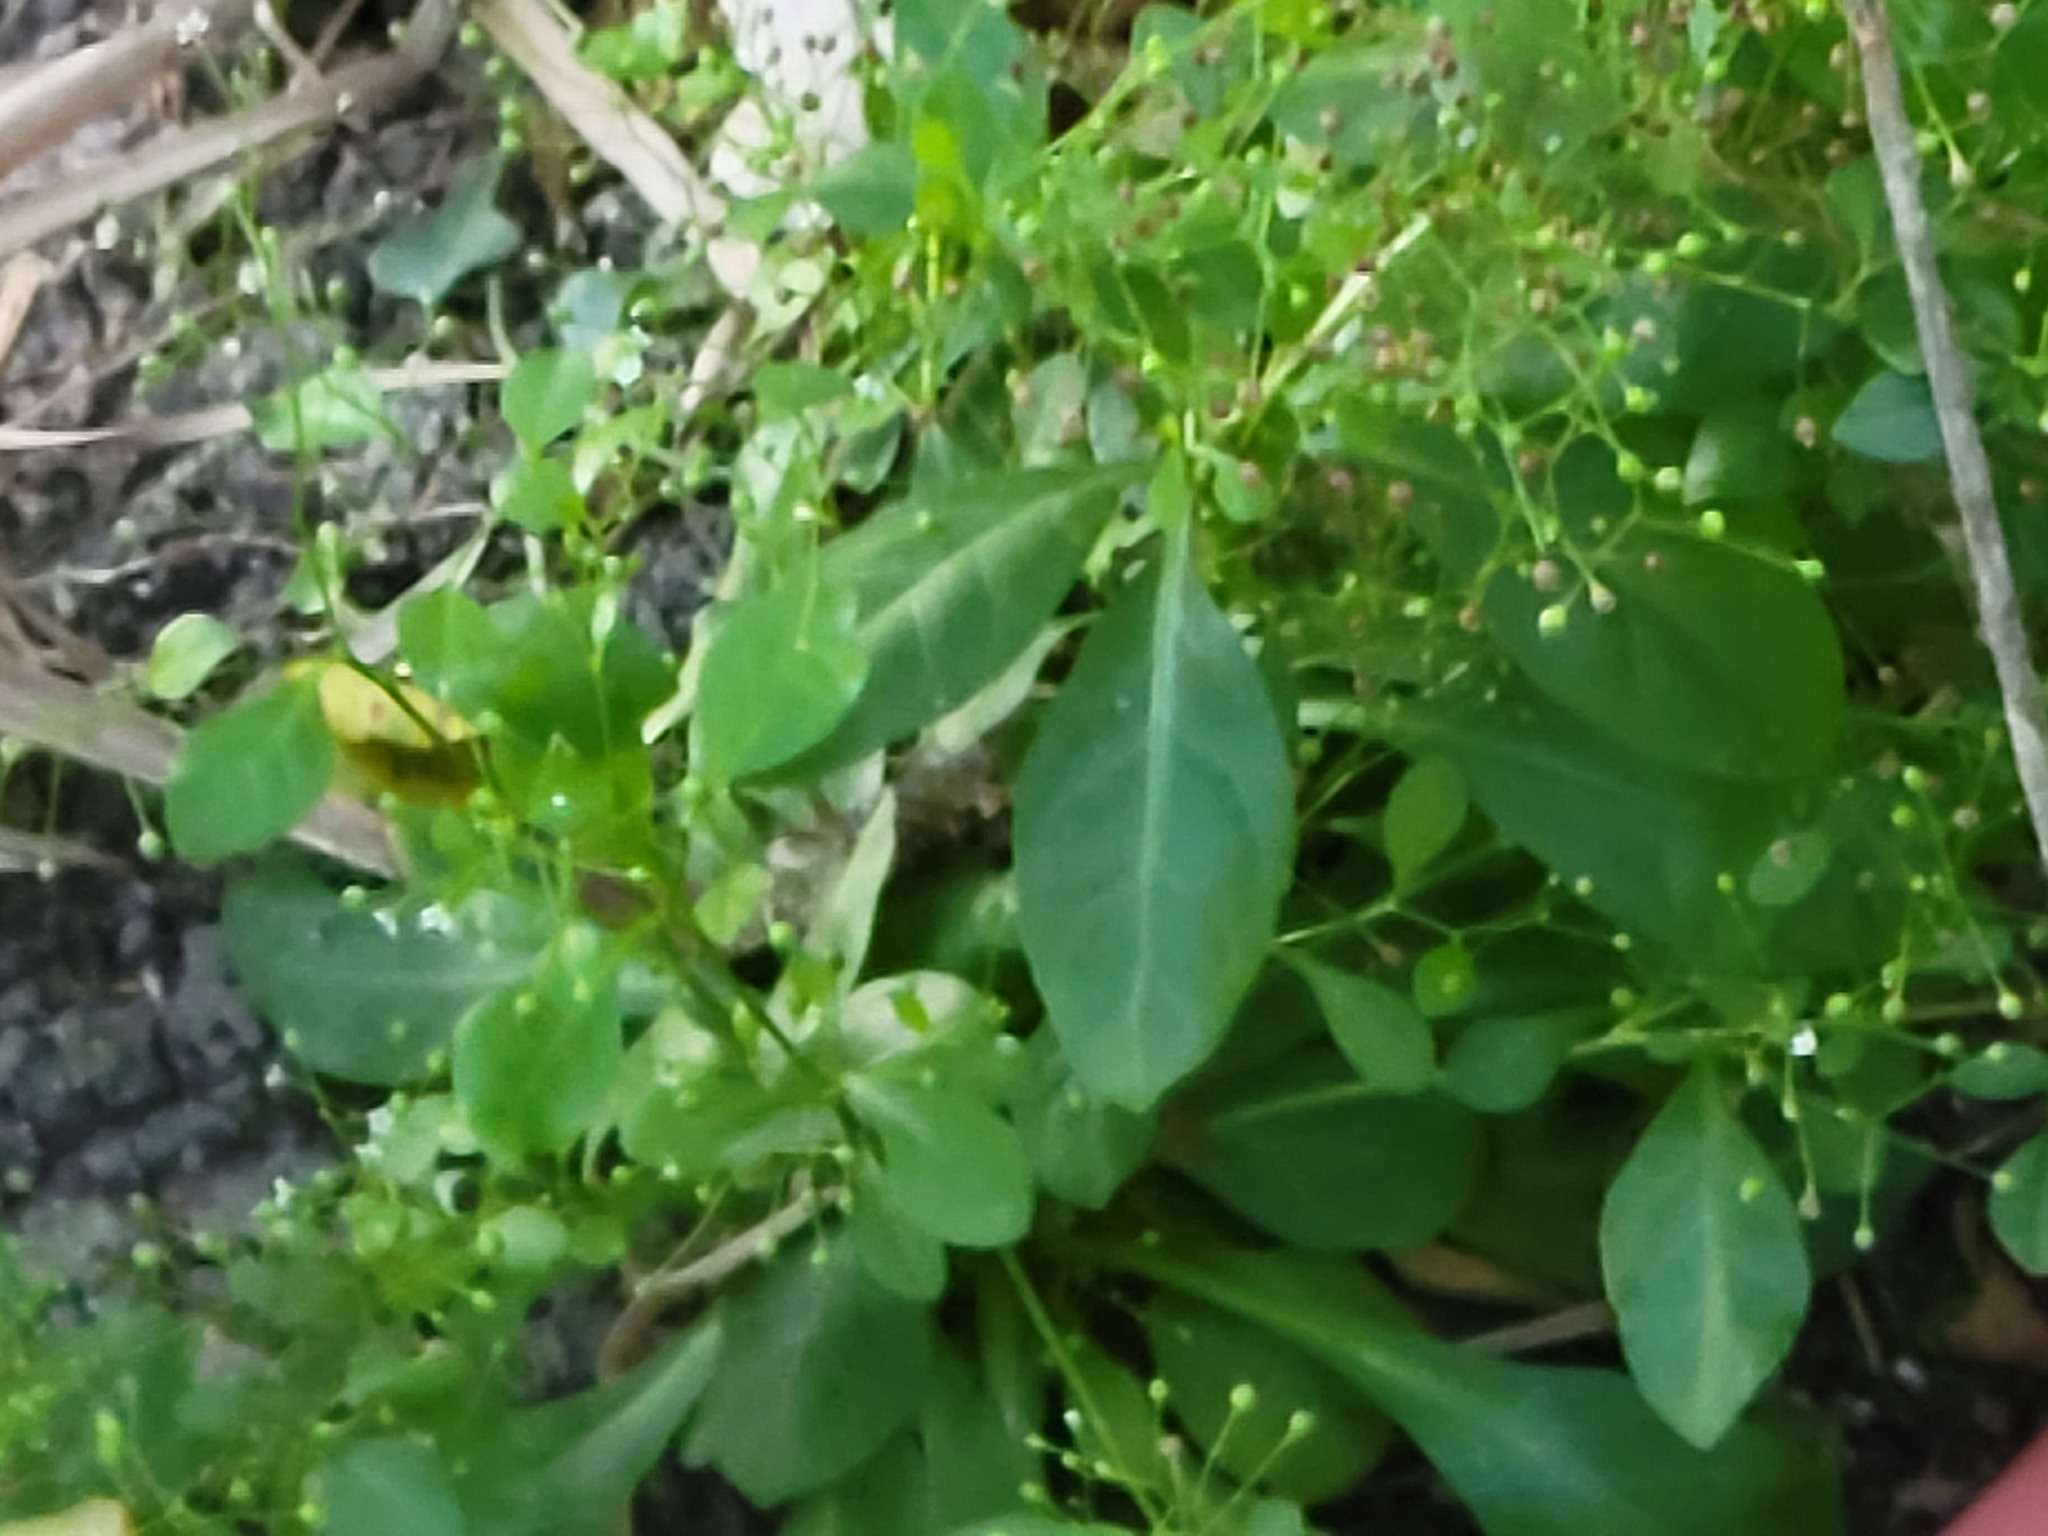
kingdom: Plantae
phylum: Tracheophyta
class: Magnoliopsida
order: Ericales
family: Primulaceae
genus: Samolus
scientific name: Samolus parviflorus
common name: False water pimpernel
